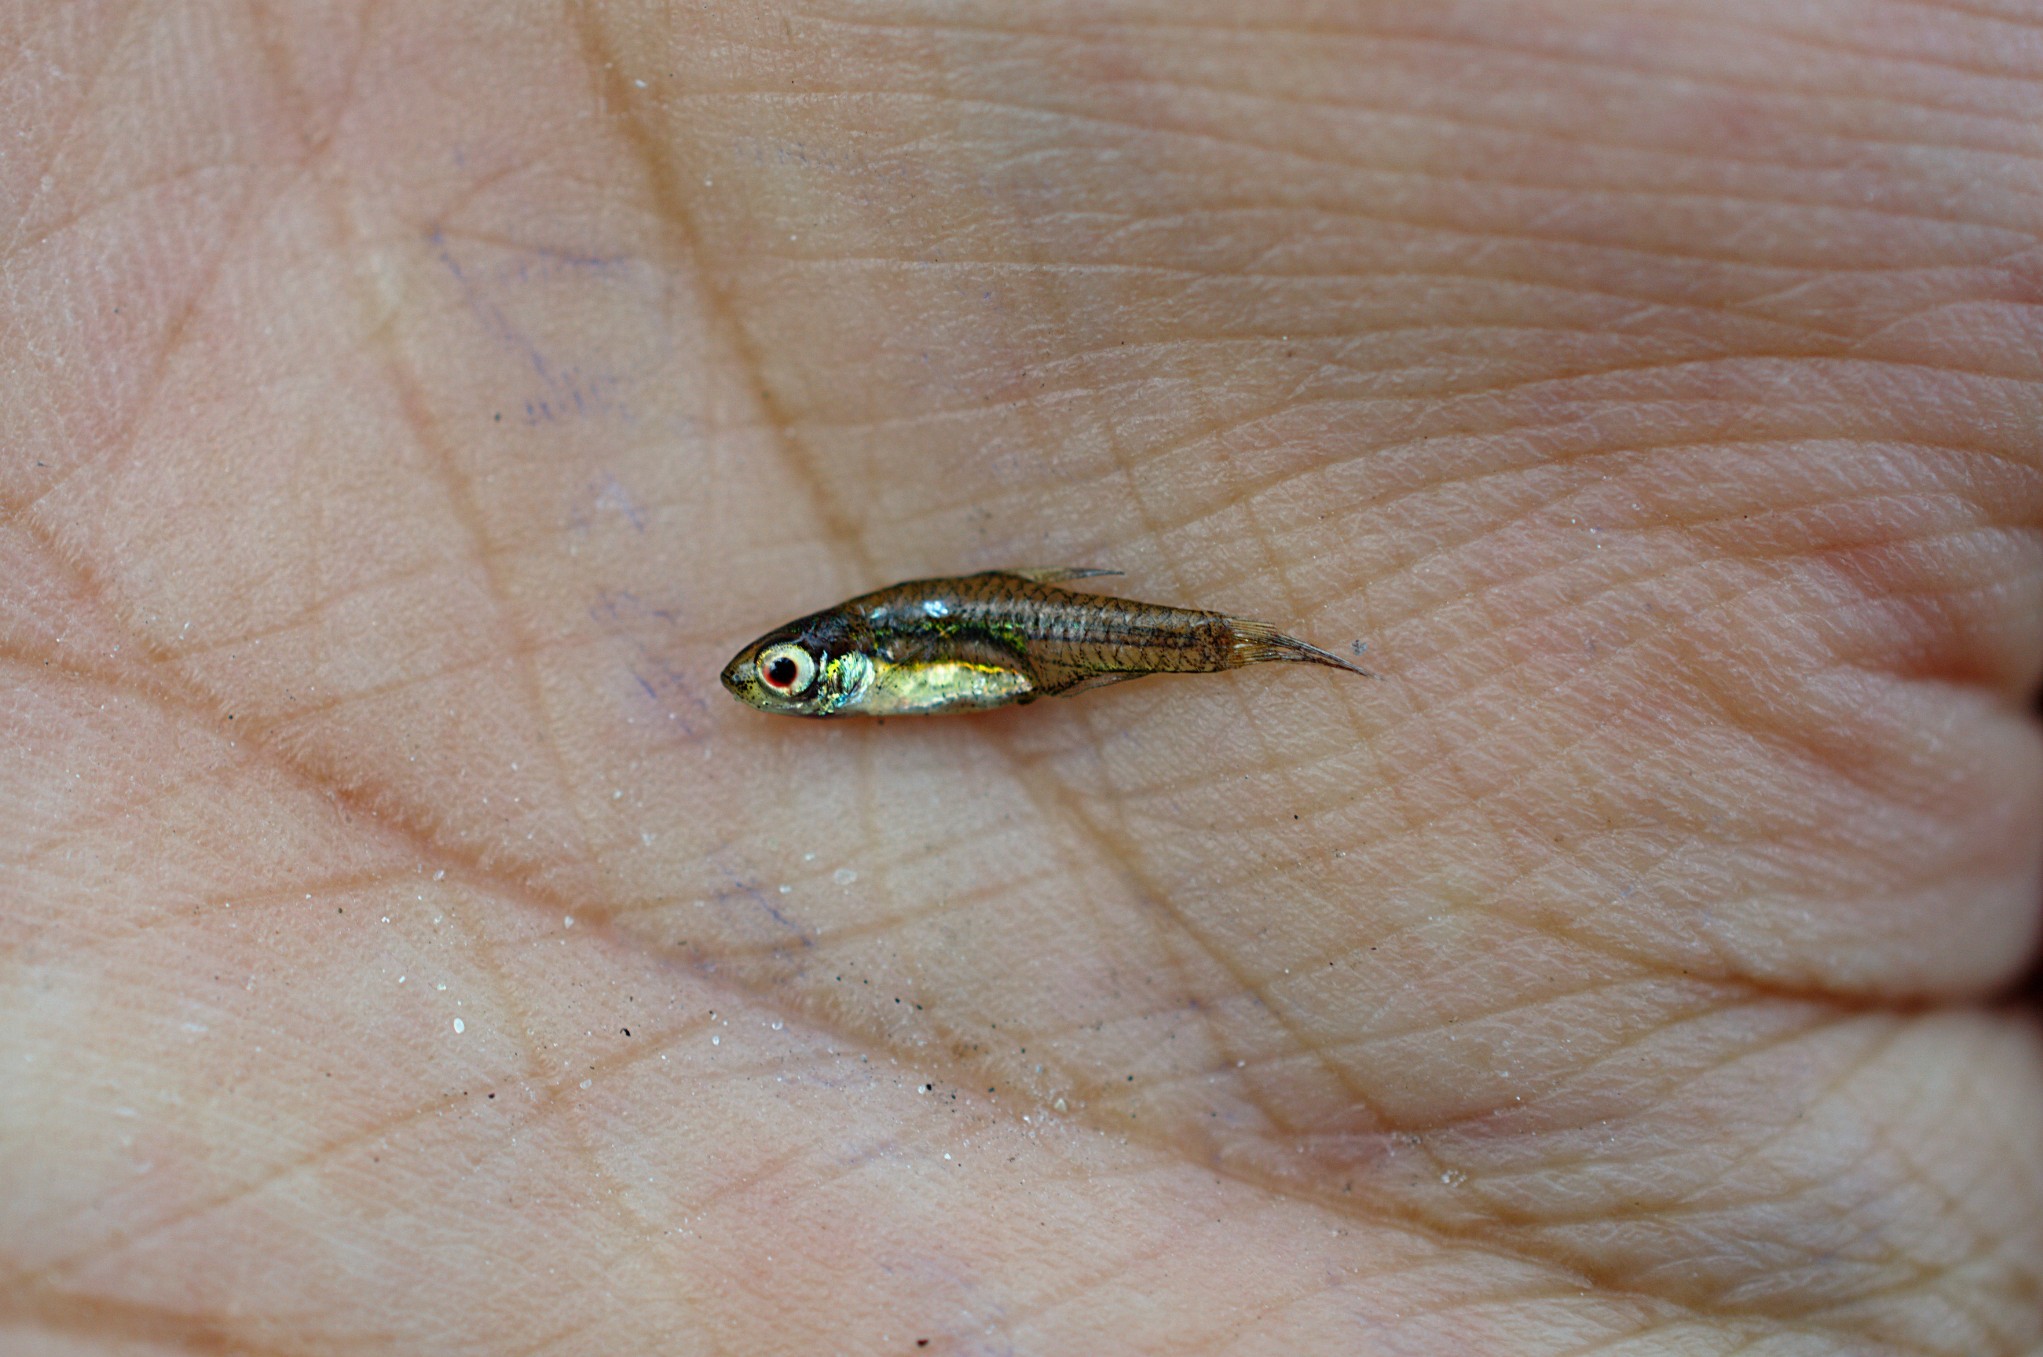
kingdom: Animalia
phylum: Chordata
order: Cypriniformes
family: Cyprinidae
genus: Horadandia
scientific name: Horadandia brittani
